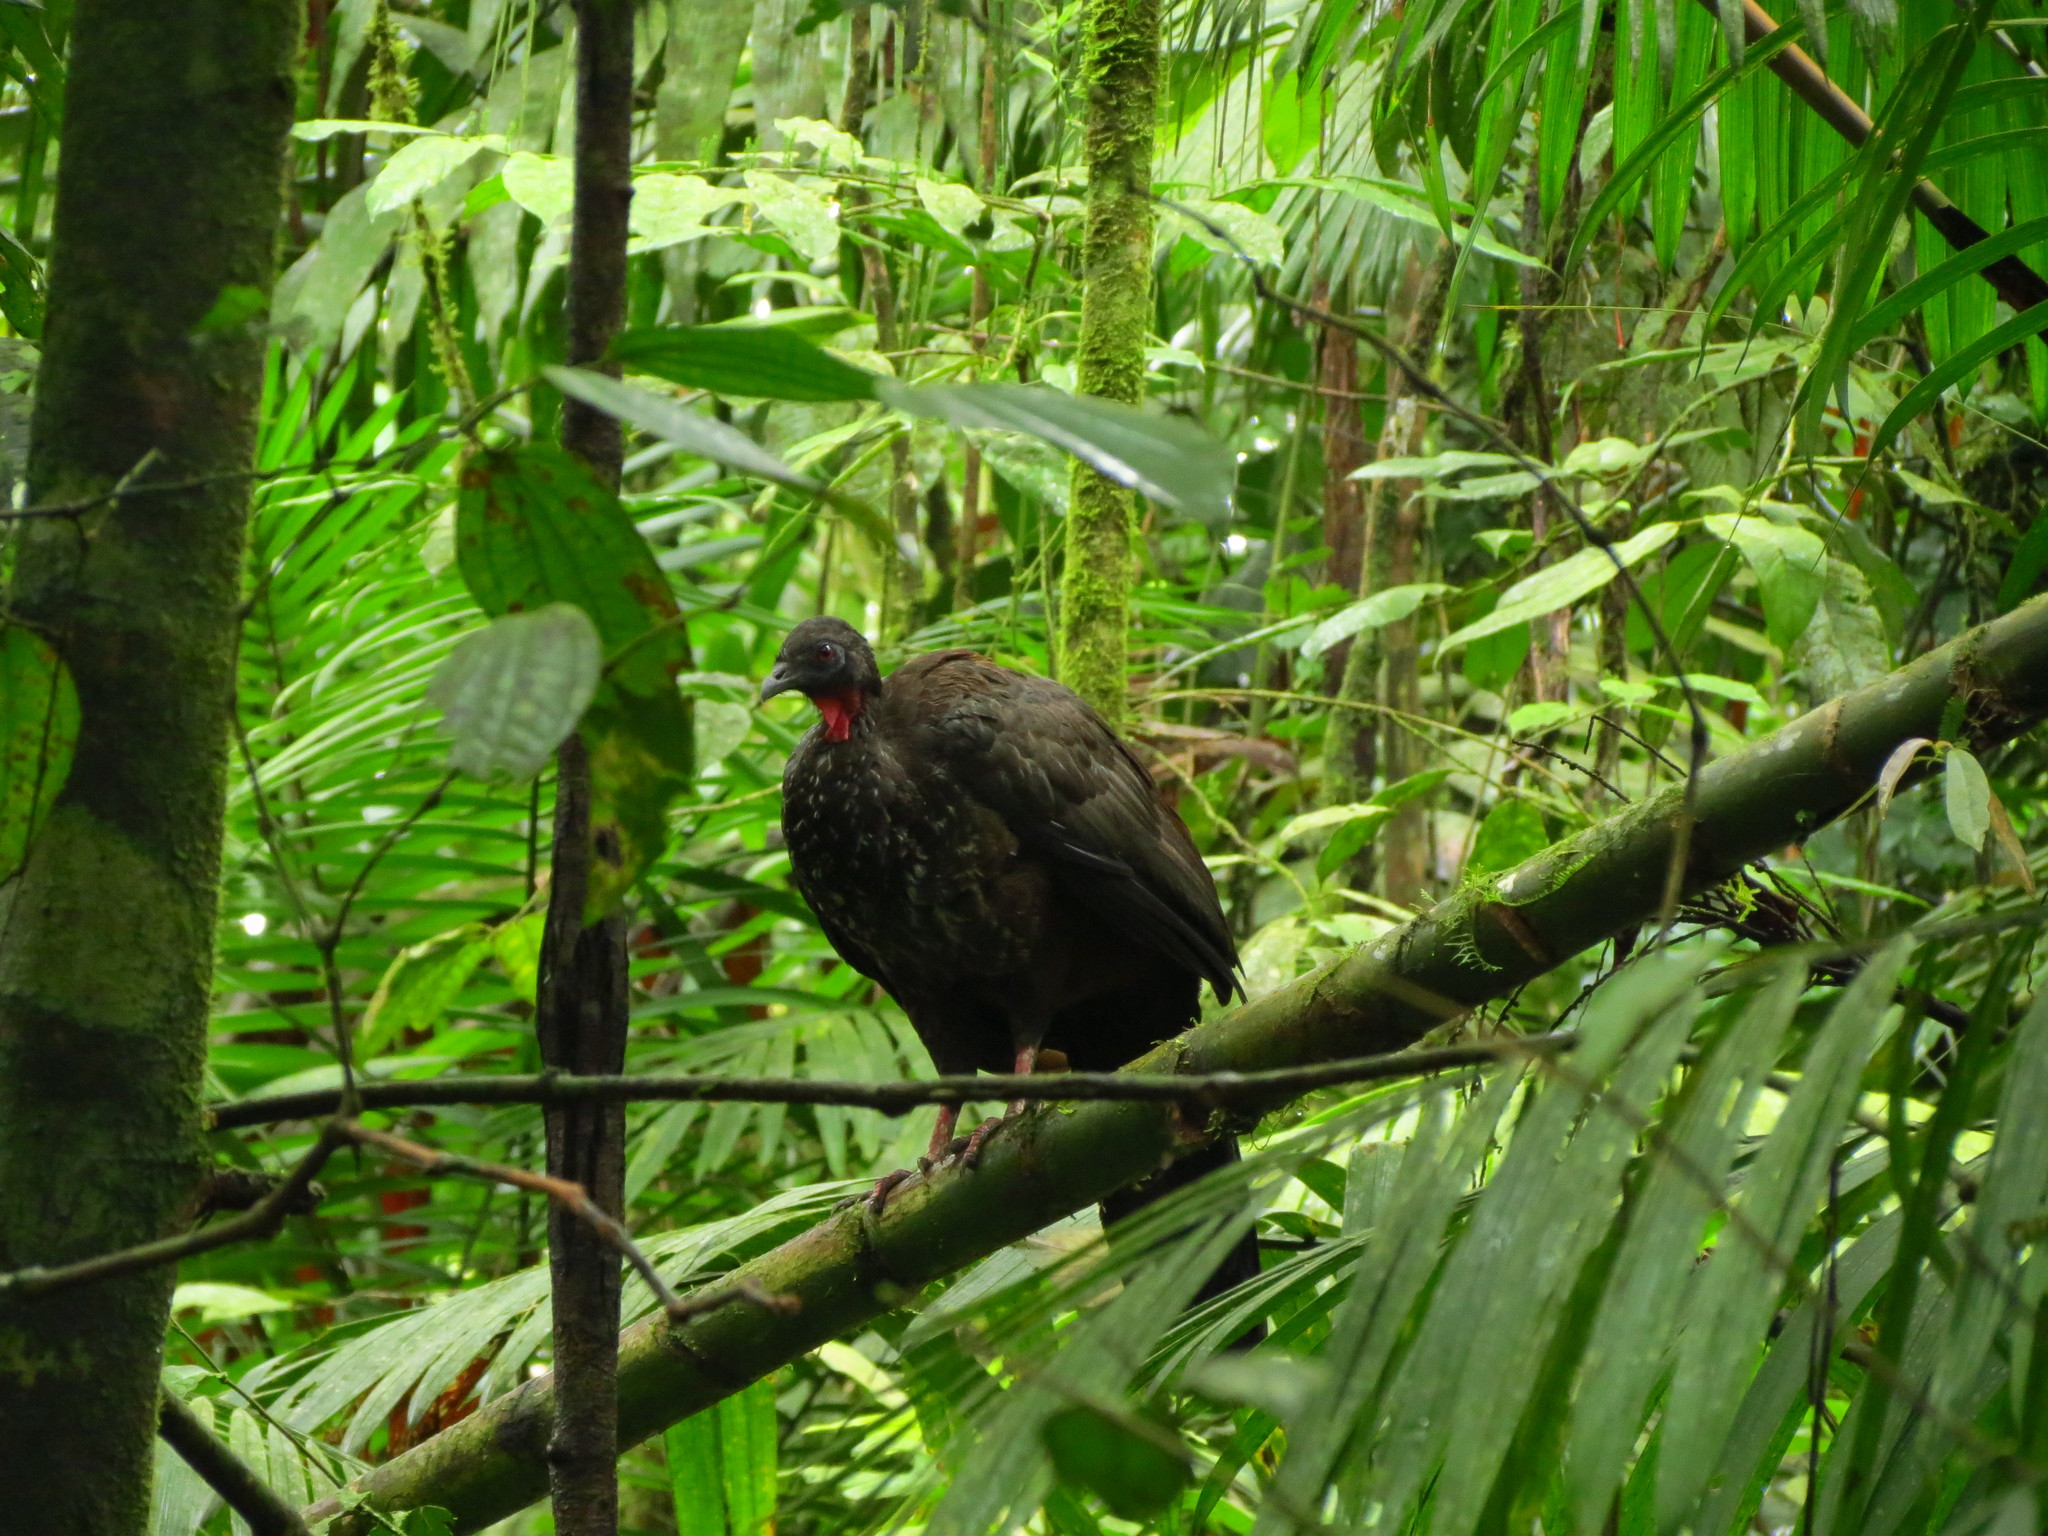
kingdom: Animalia
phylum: Chordata
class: Aves
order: Galliformes
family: Cracidae
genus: Penelope
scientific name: Penelope purpurascens
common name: Crested guan
